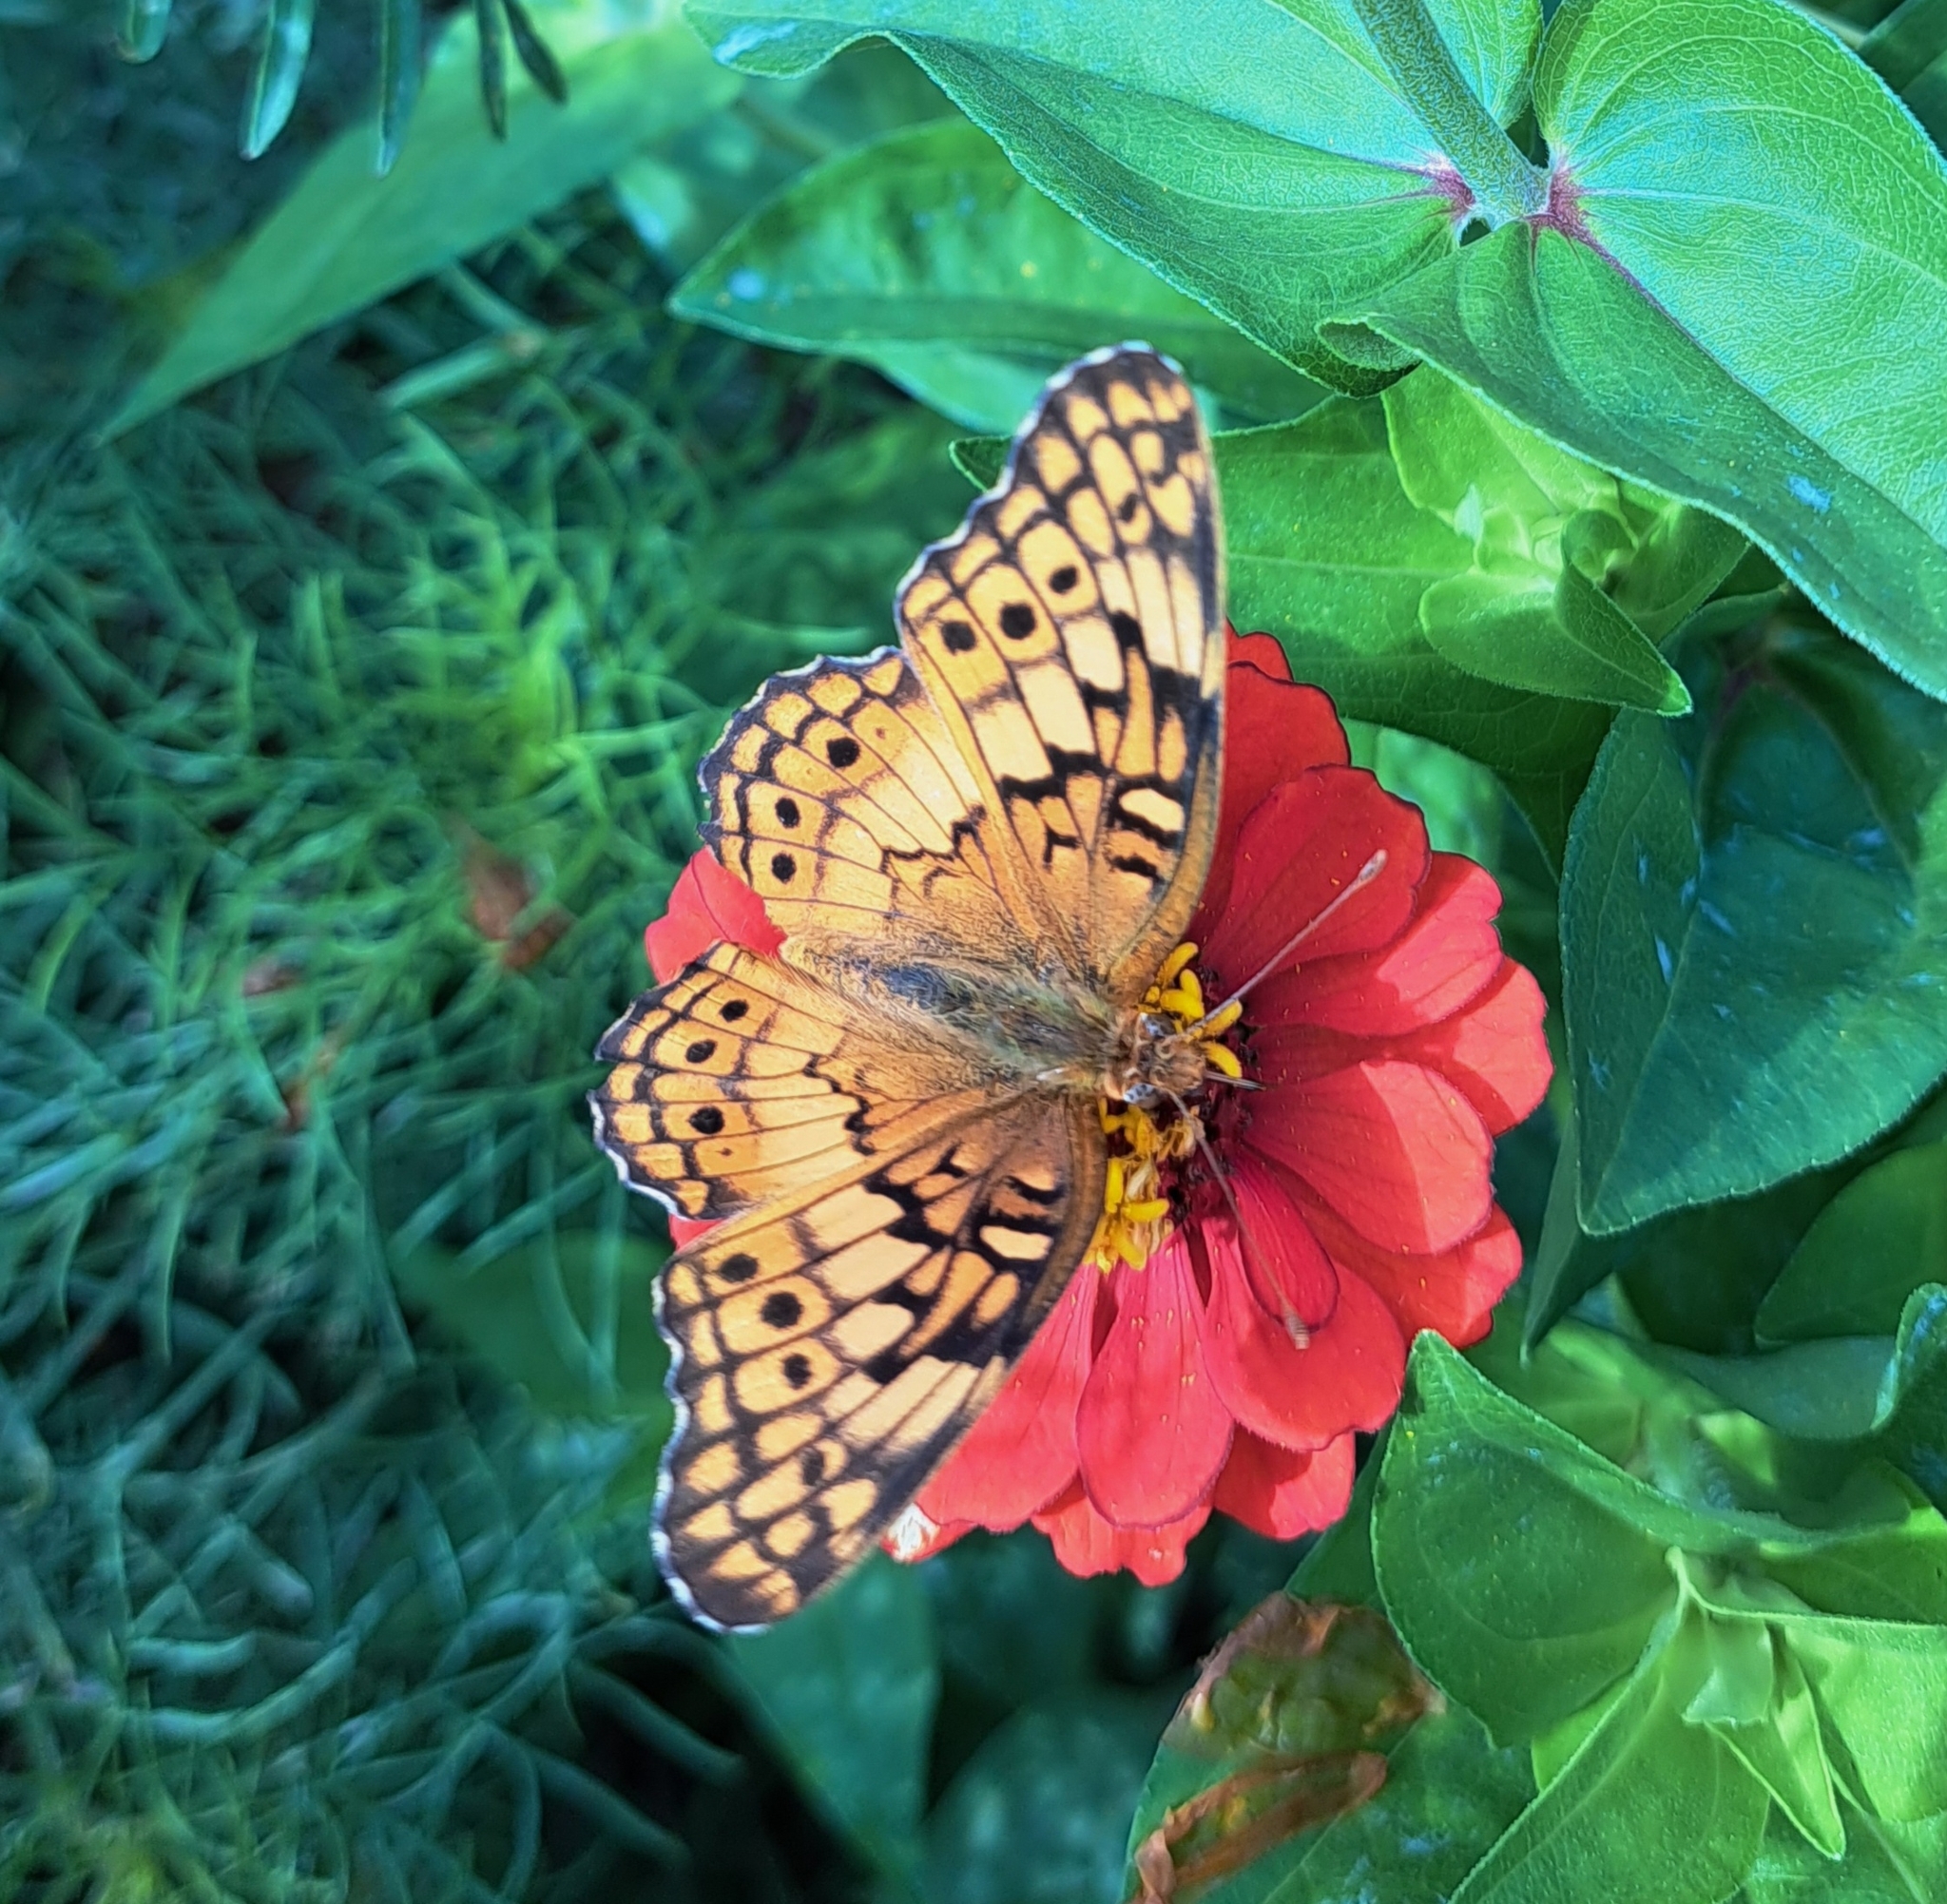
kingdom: Animalia
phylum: Arthropoda
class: Insecta
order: Lepidoptera
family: Nymphalidae
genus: Euptoieta
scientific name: Euptoieta claudia
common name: Variegated fritillary
